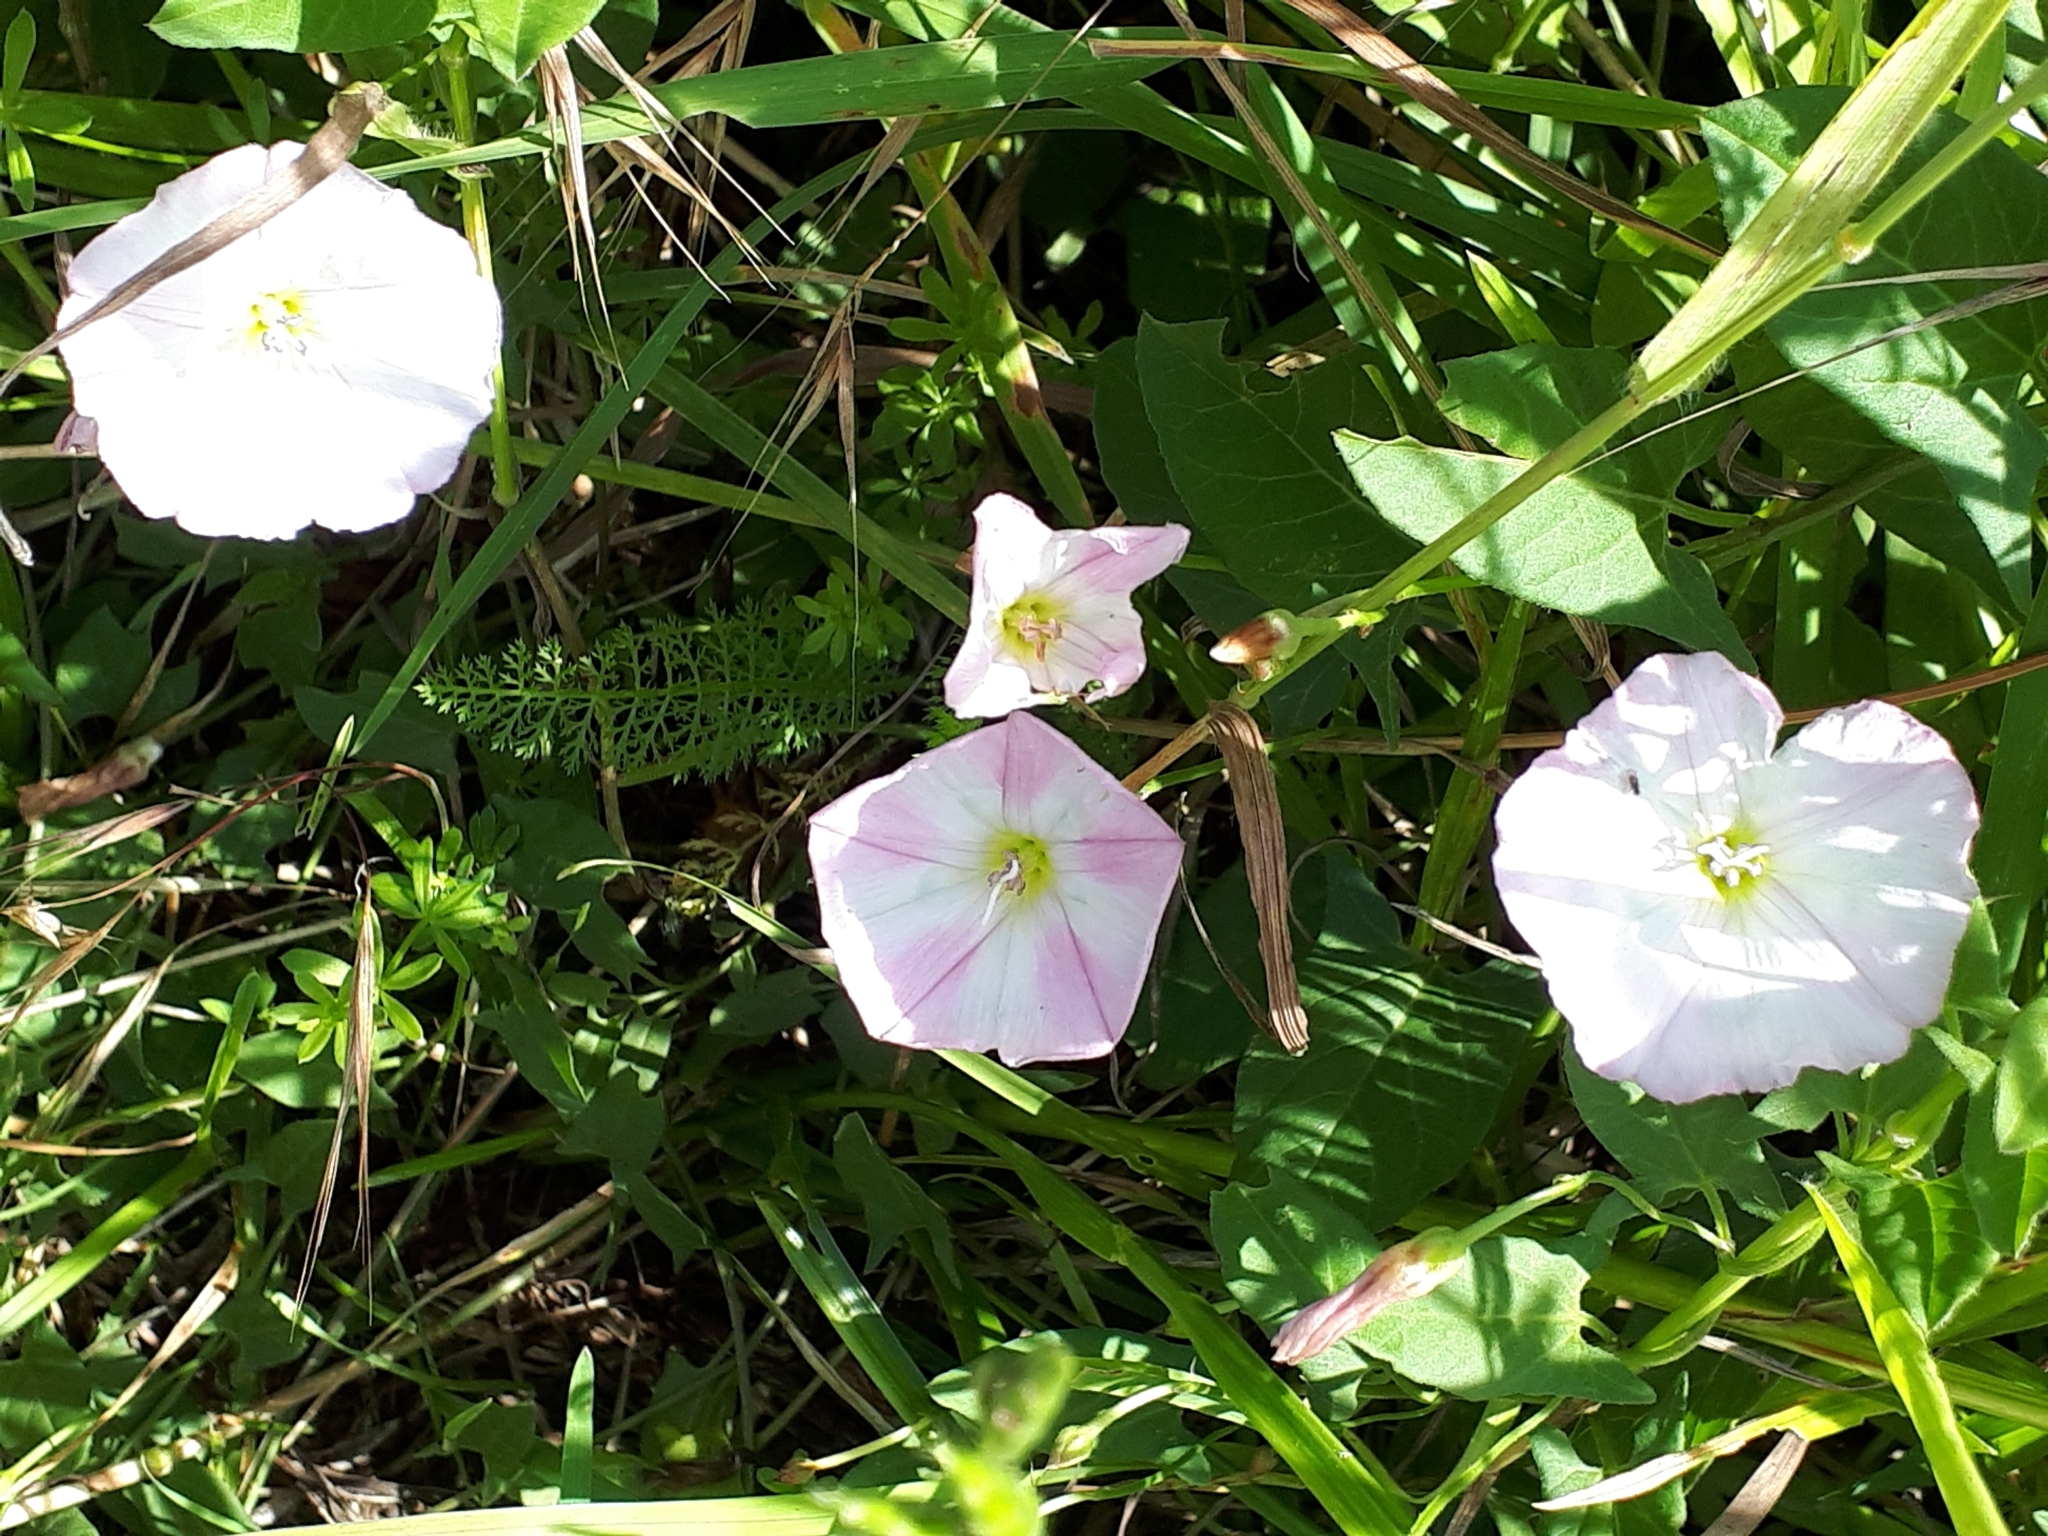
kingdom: Plantae
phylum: Tracheophyta
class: Magnoliopsida
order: Solanales
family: Convolvulaceae
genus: Convolvulus
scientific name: Convolvulus arvensis
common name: Field bindweed
